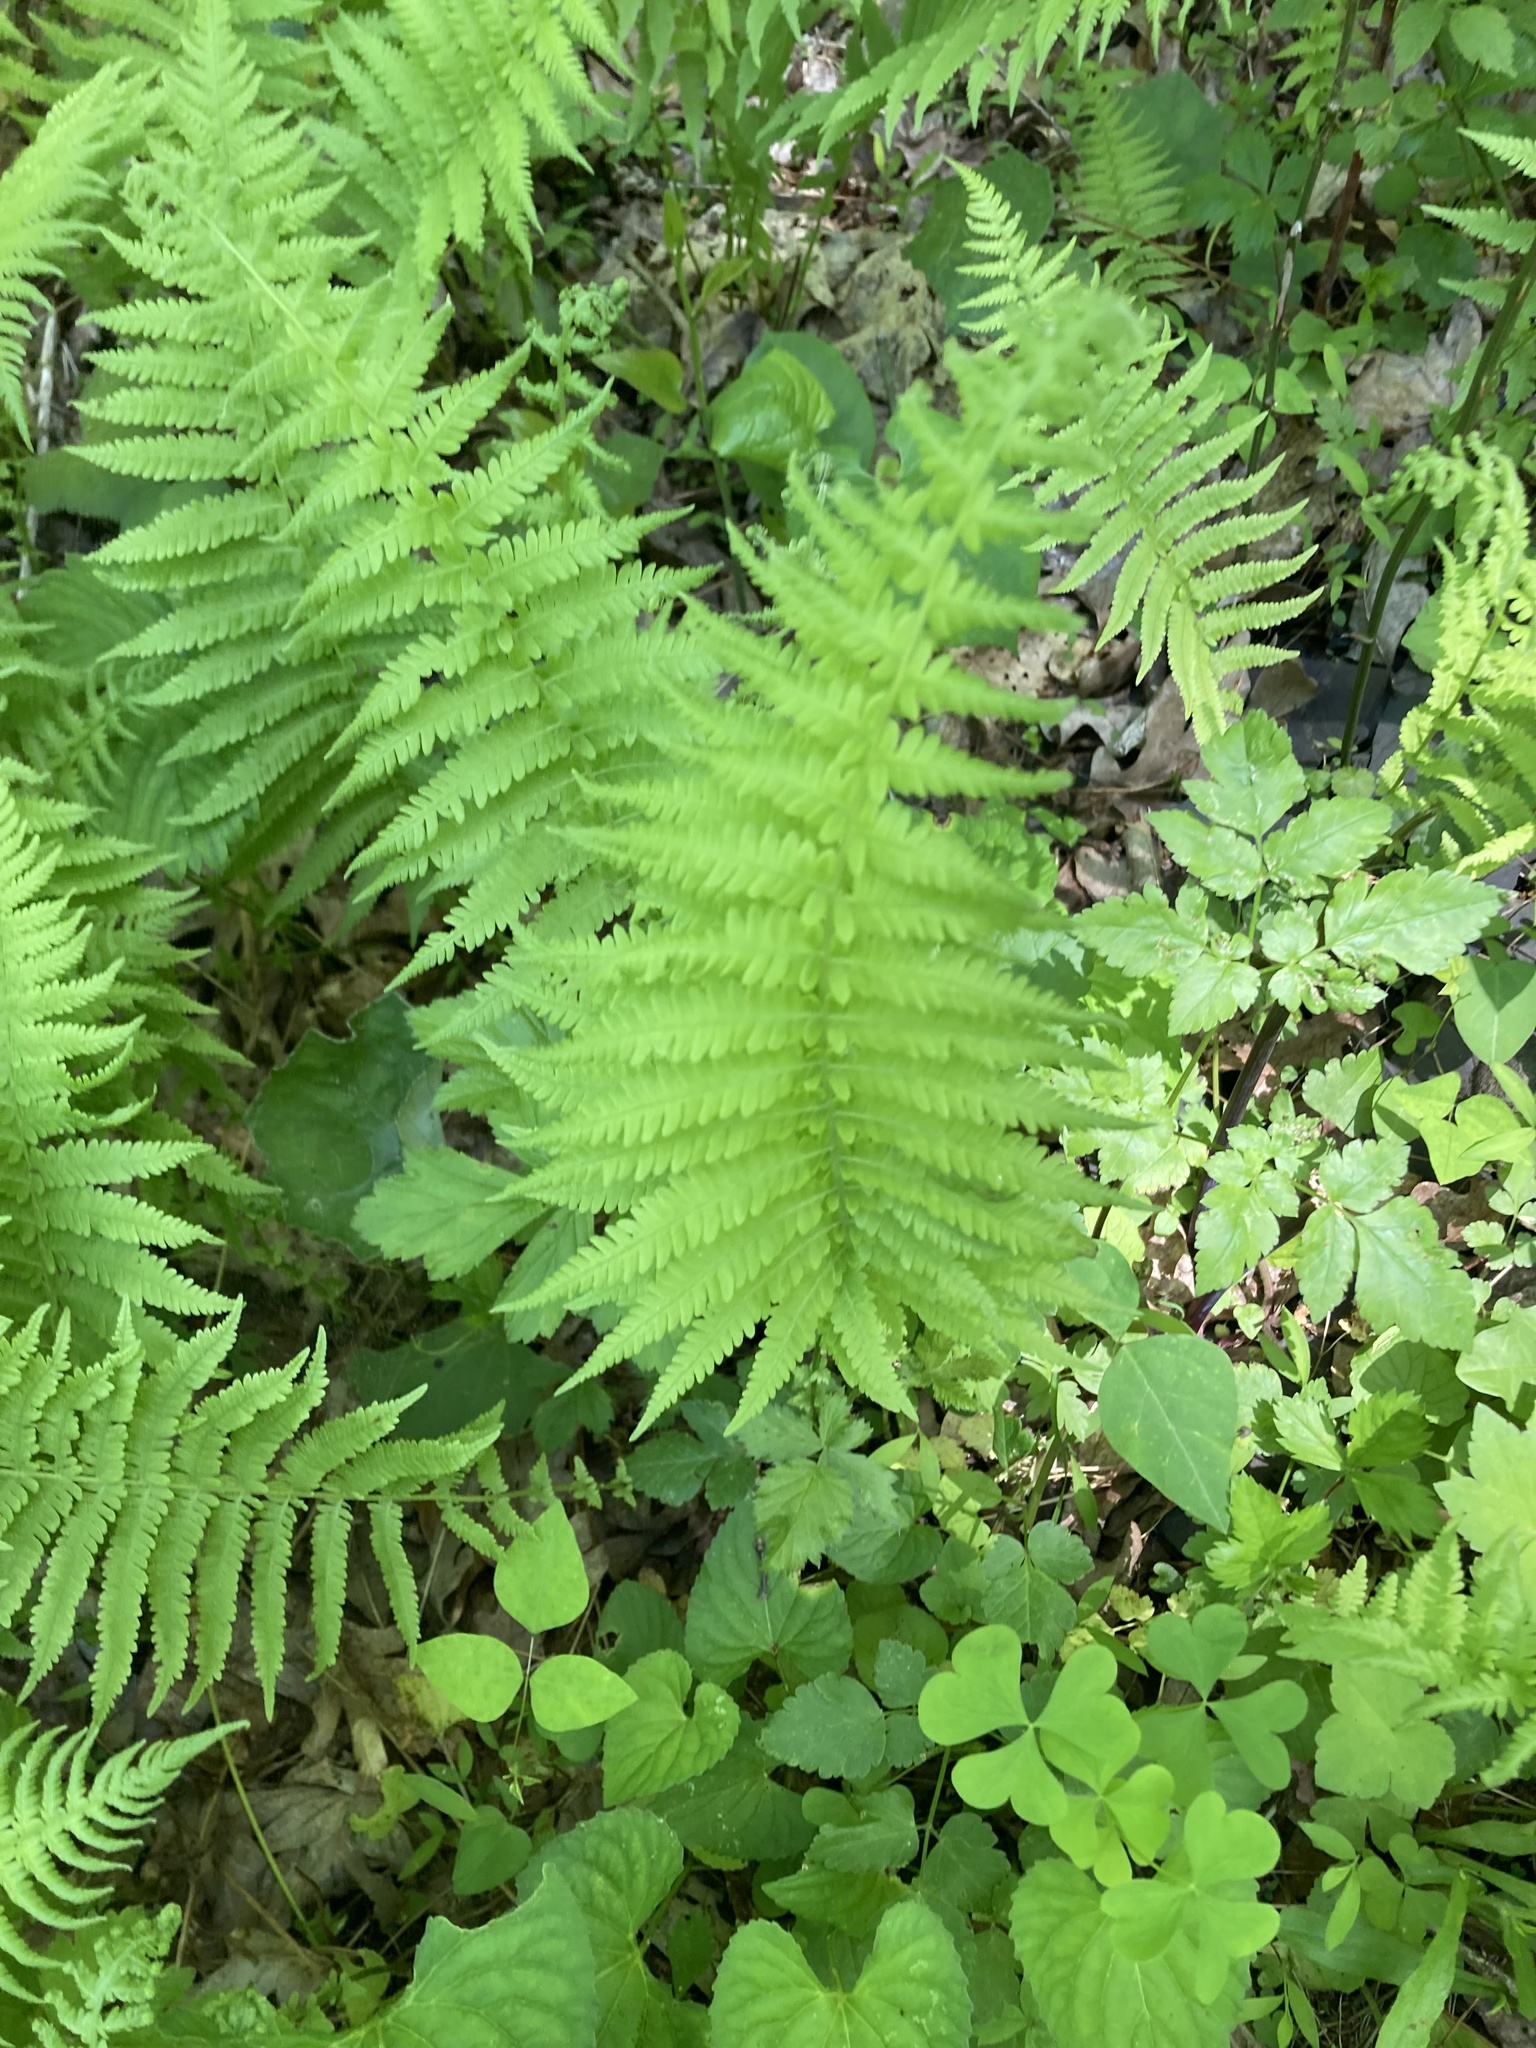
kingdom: Plantae
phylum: Tracheophyta
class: Polypodiopsida
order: Polypodiales
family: Thelypteridaceae
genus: Amauropelta
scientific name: Amauropelta noveboracensis
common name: New york fern
